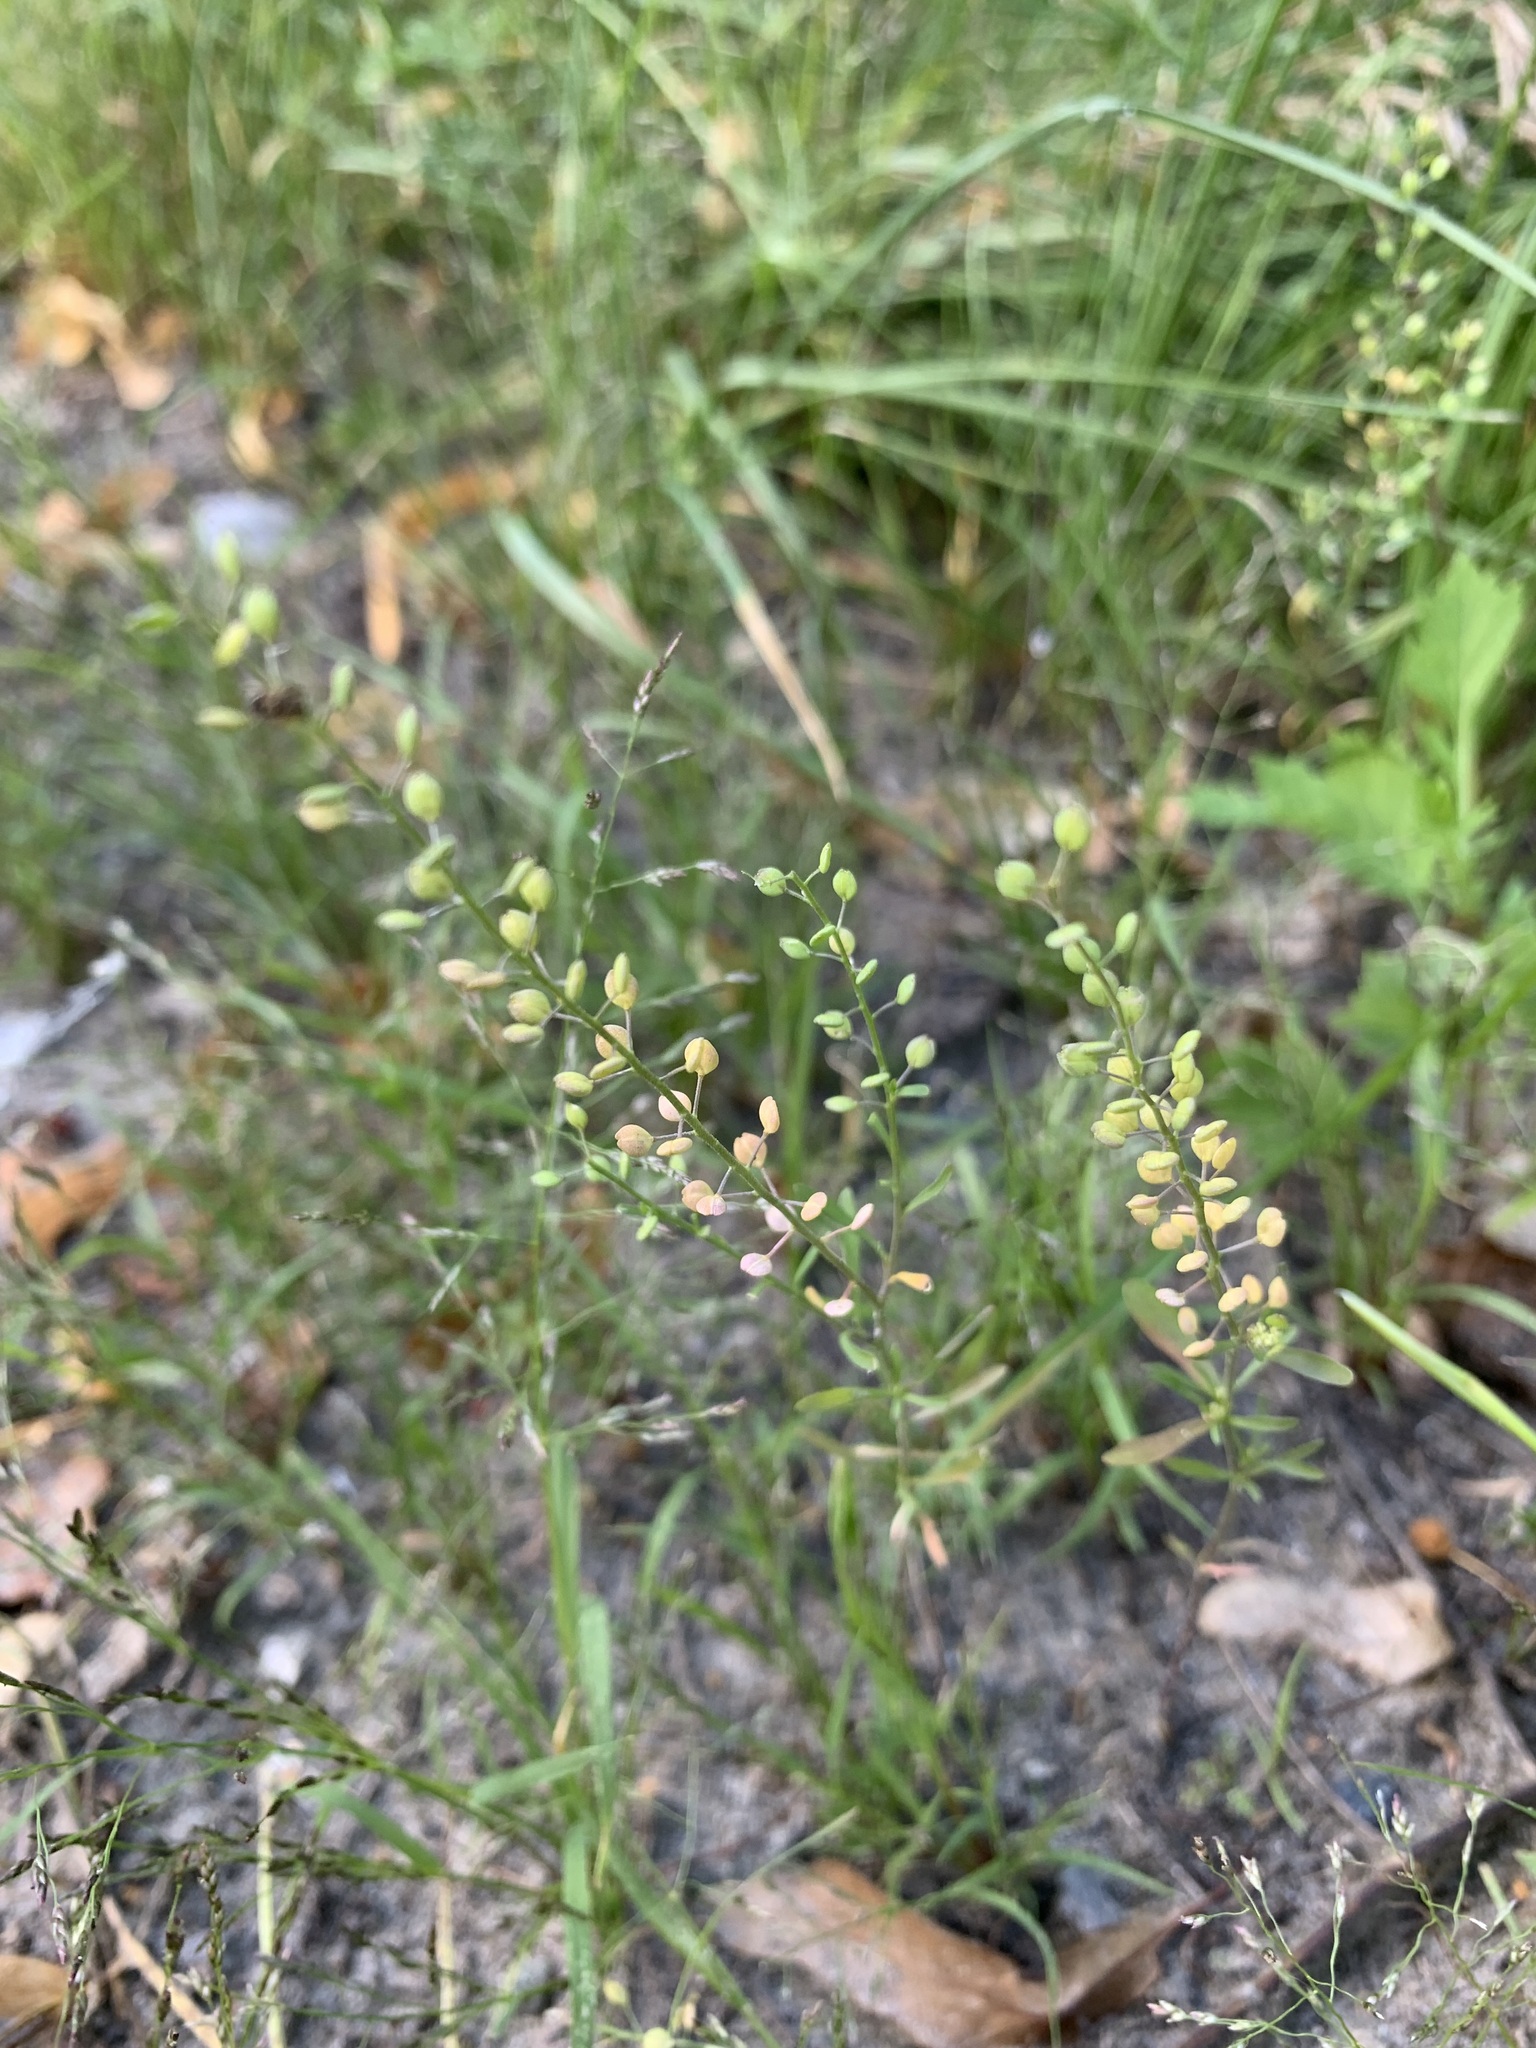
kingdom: Plantae
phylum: Tracheophyta
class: Magnoliopsida
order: Brassicales
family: Brassicaceae
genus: Lepidium
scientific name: Lepidium densiflorum
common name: Miner's pepperwort
